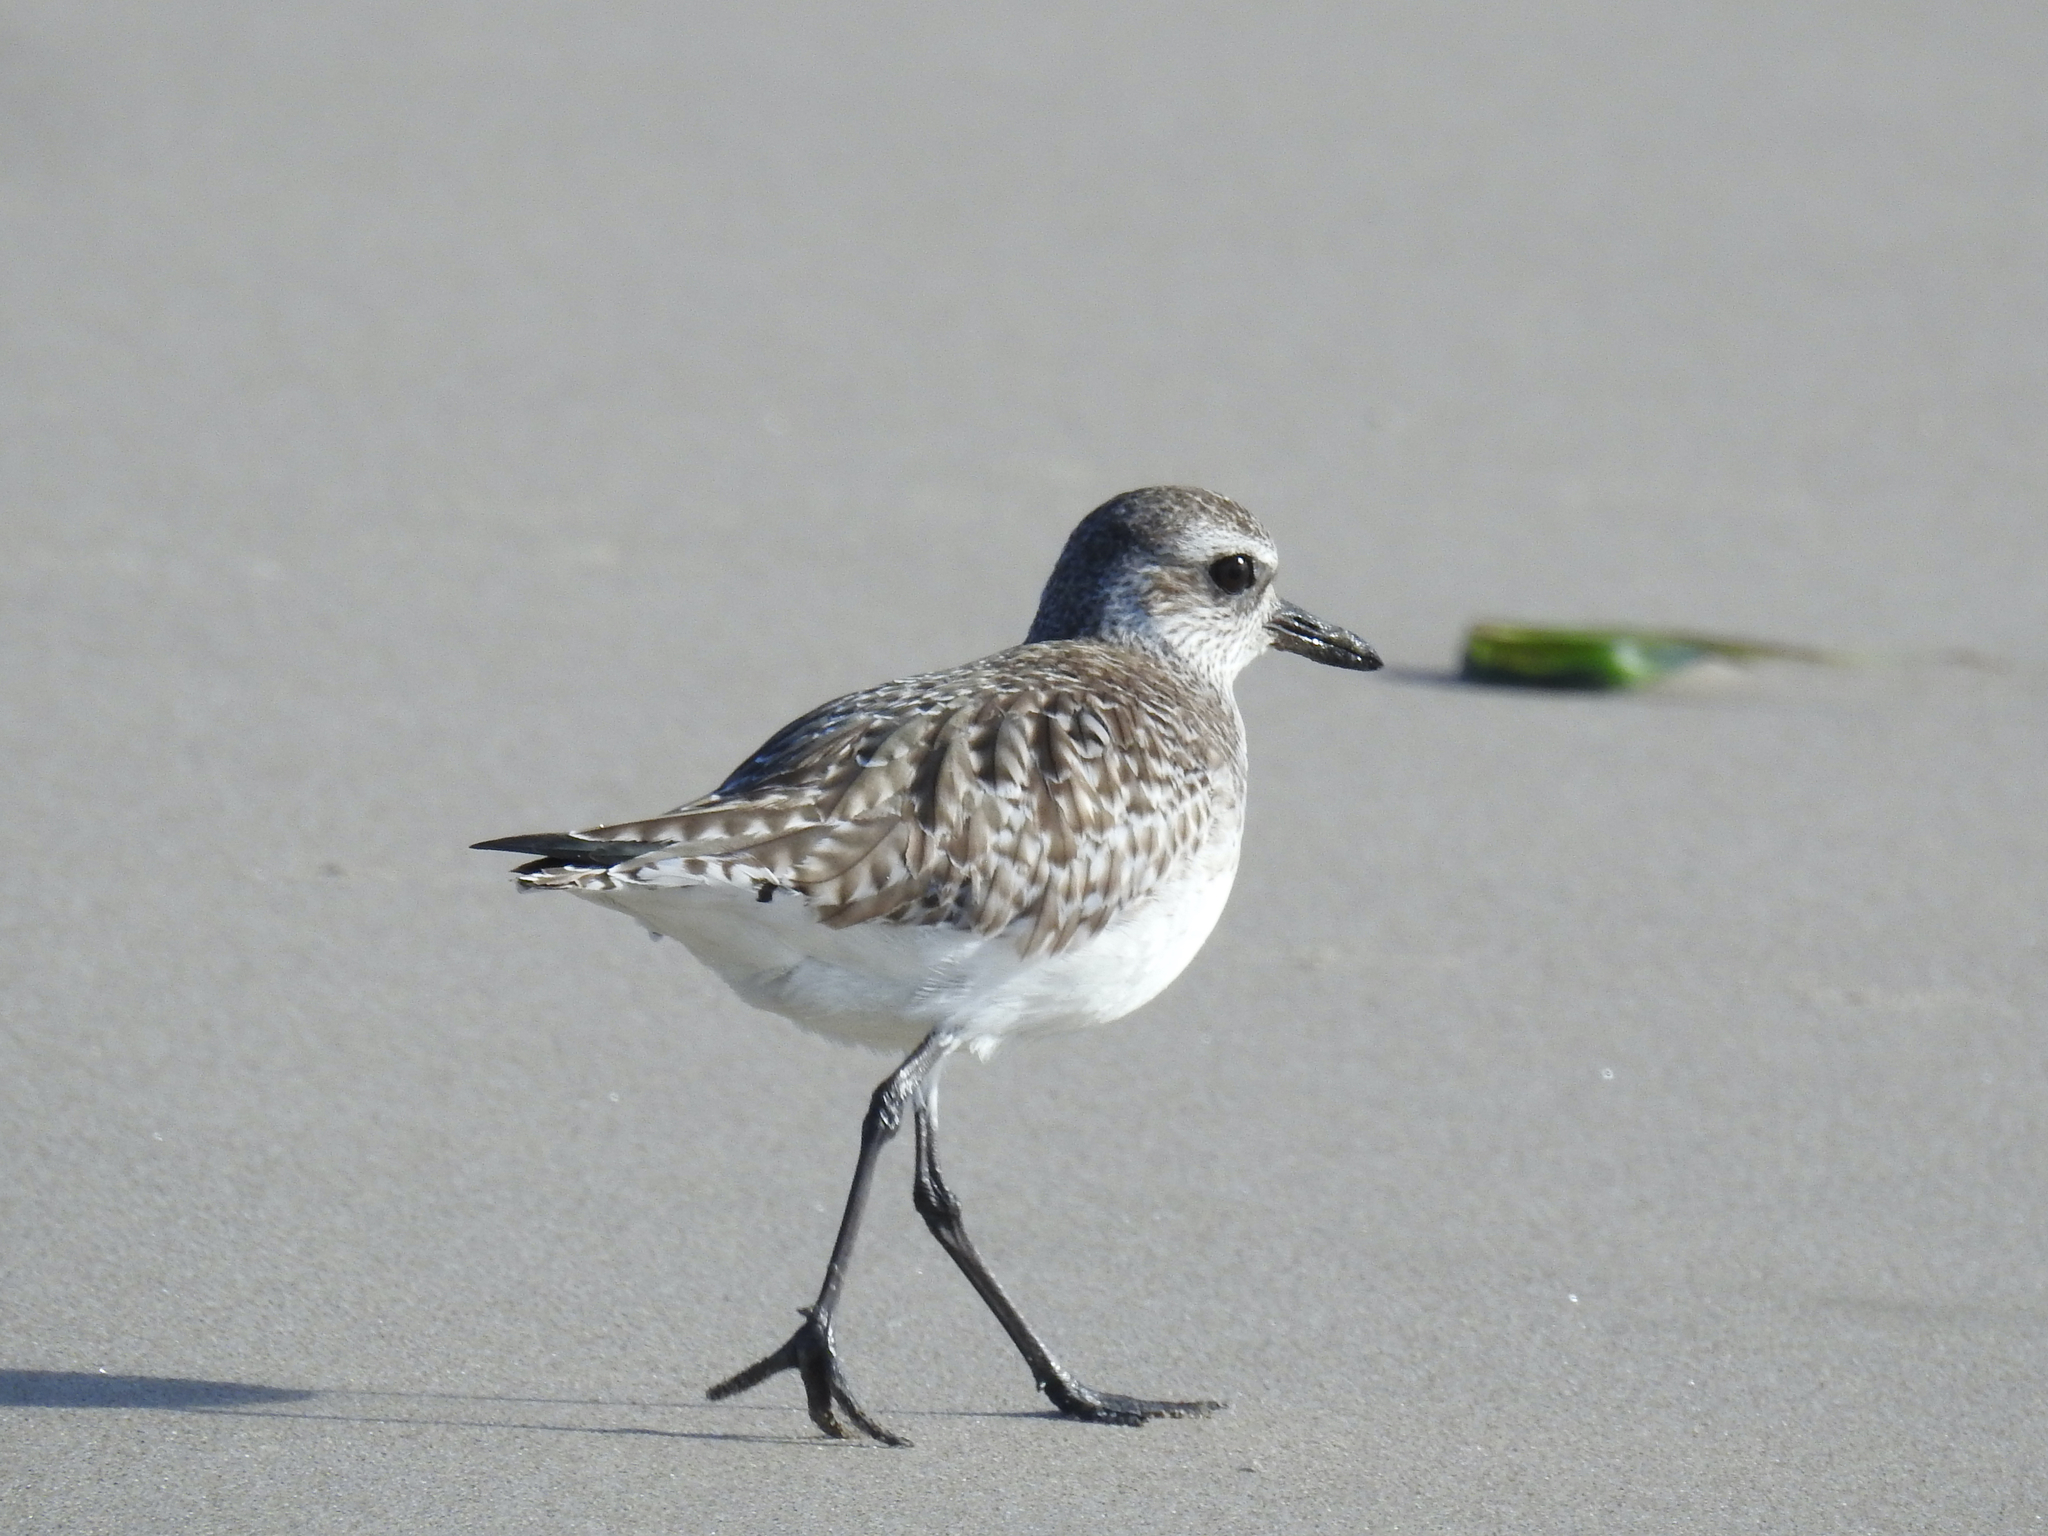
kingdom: Animalia
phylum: Chordata
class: Aves
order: Charadriiformes
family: Charadriidae
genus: Pluvialis
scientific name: Pluvialis squatarola
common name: Grey plover
